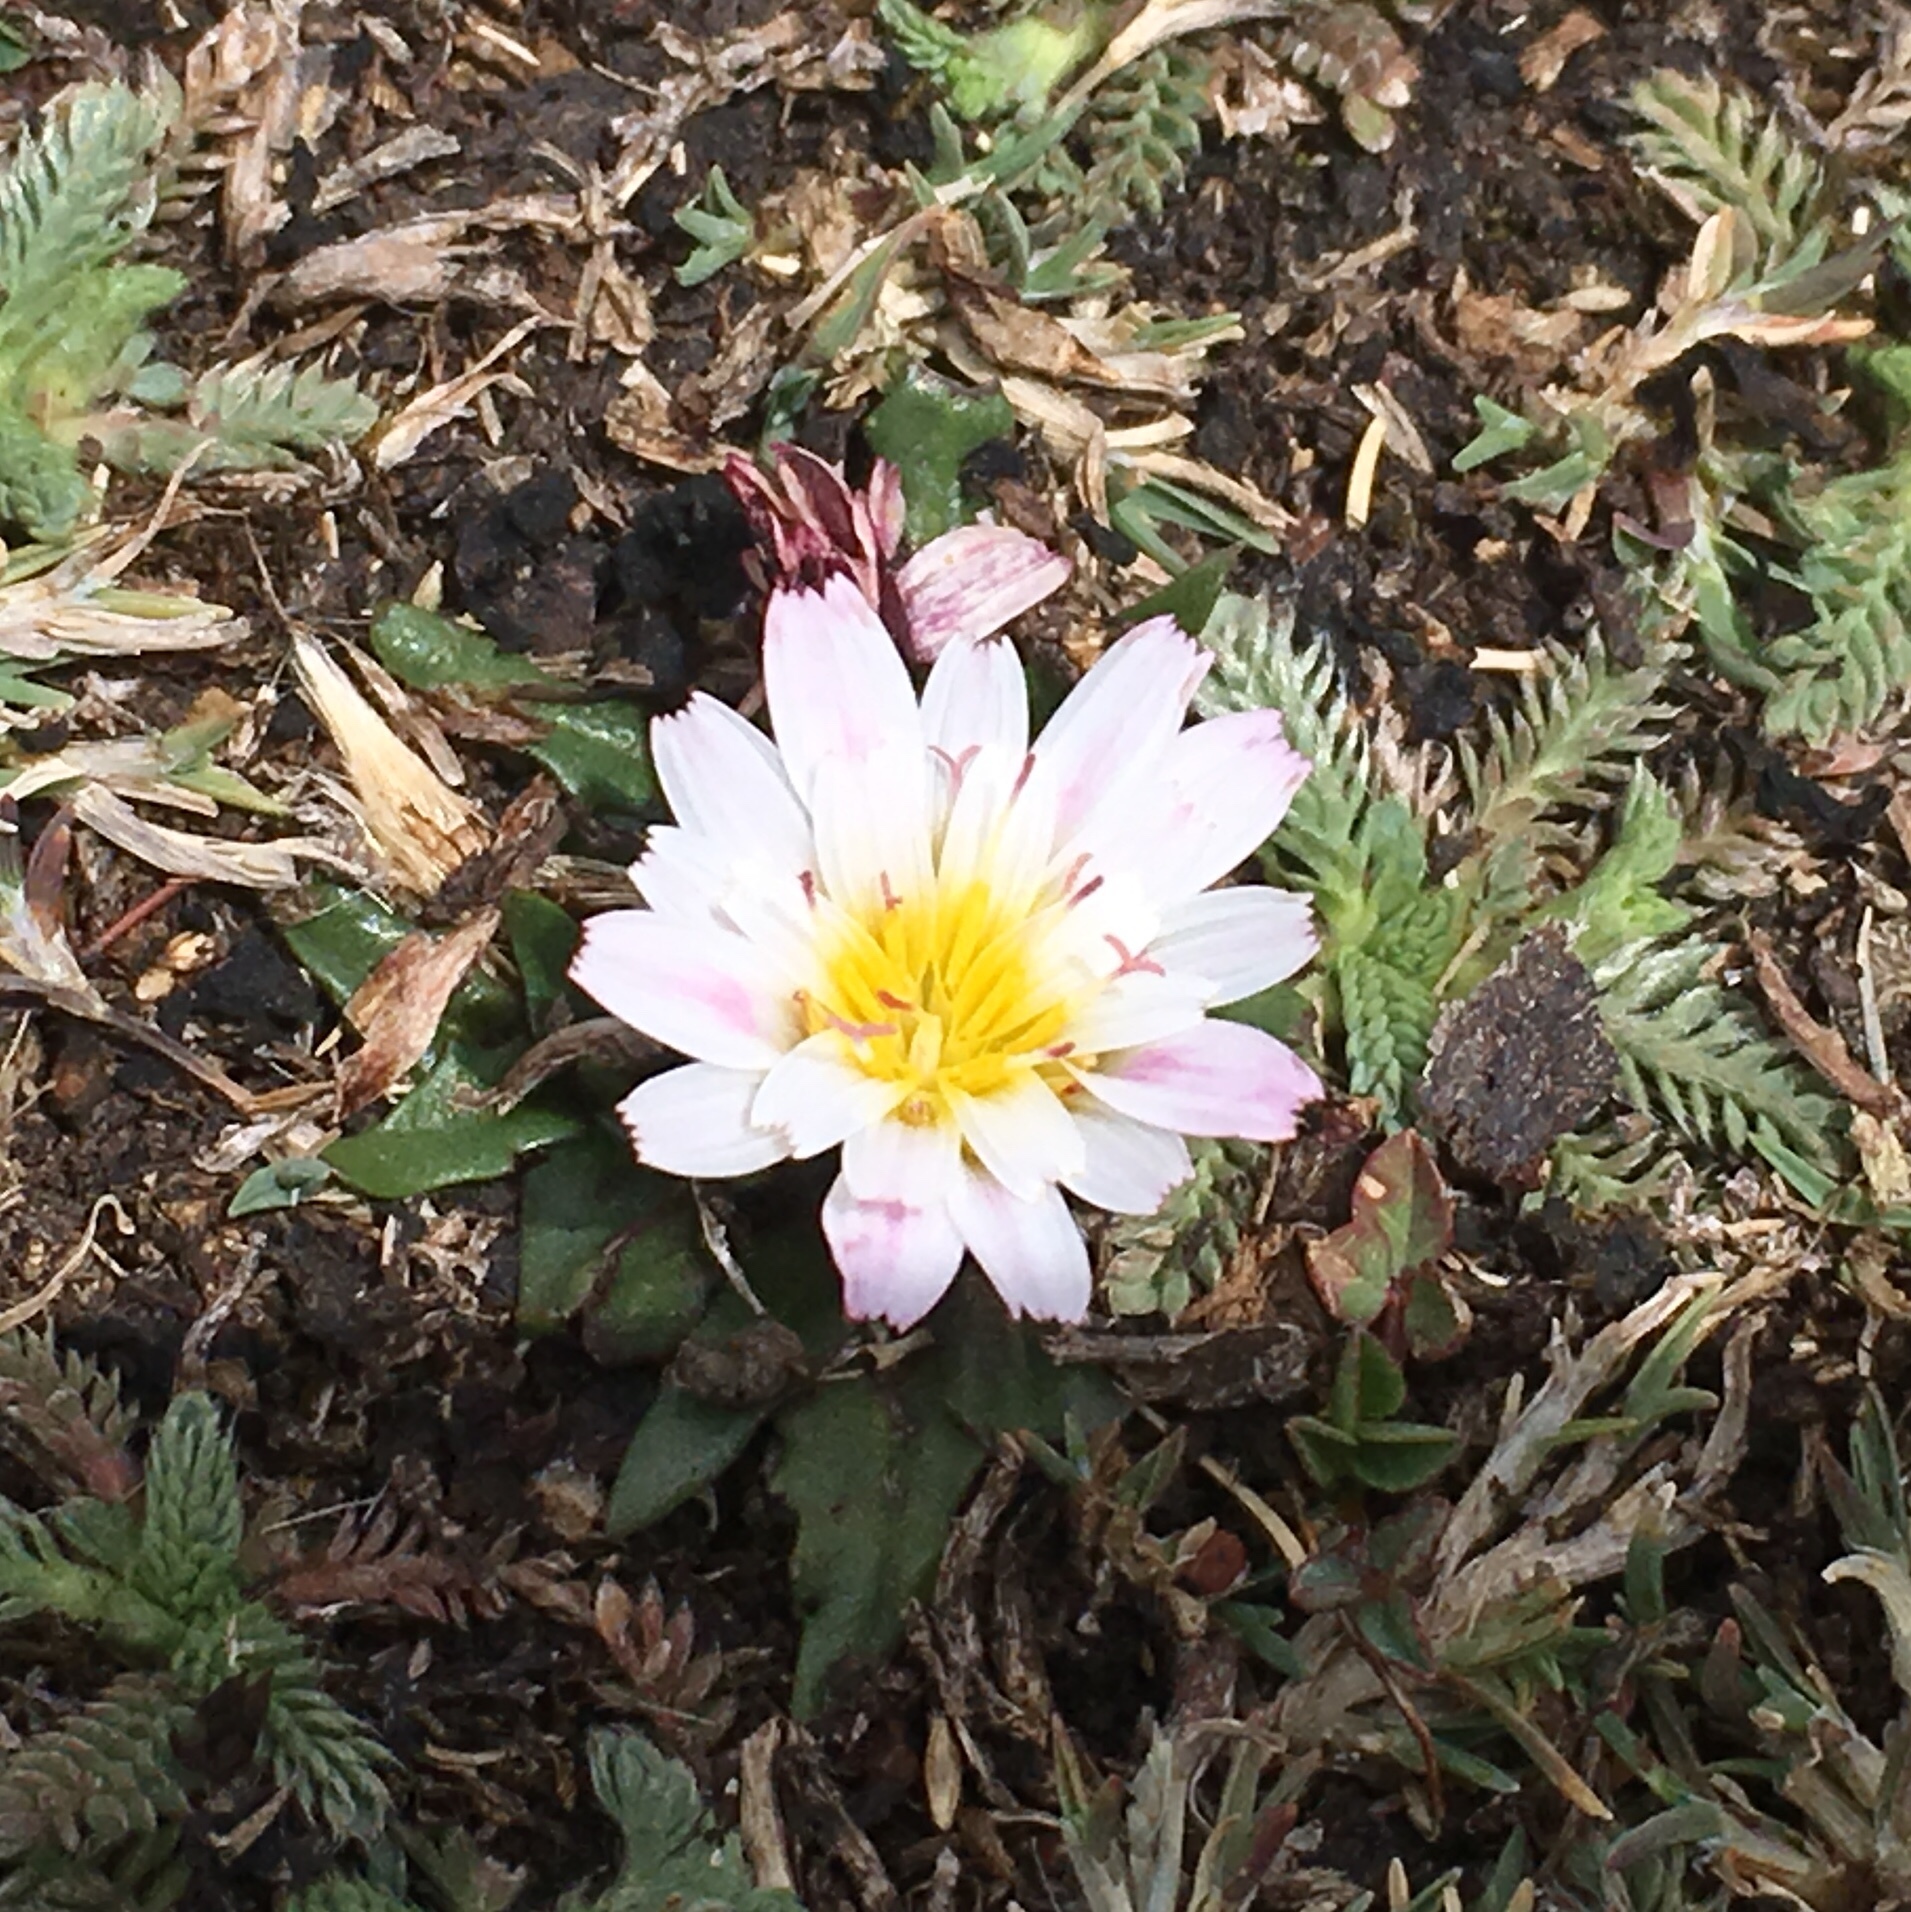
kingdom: Plantae
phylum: Tracheophyta
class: Magnoliopsida
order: Asterales
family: Asteraceae
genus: Hypochaeris
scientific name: Hypochaeris taraxacoides
